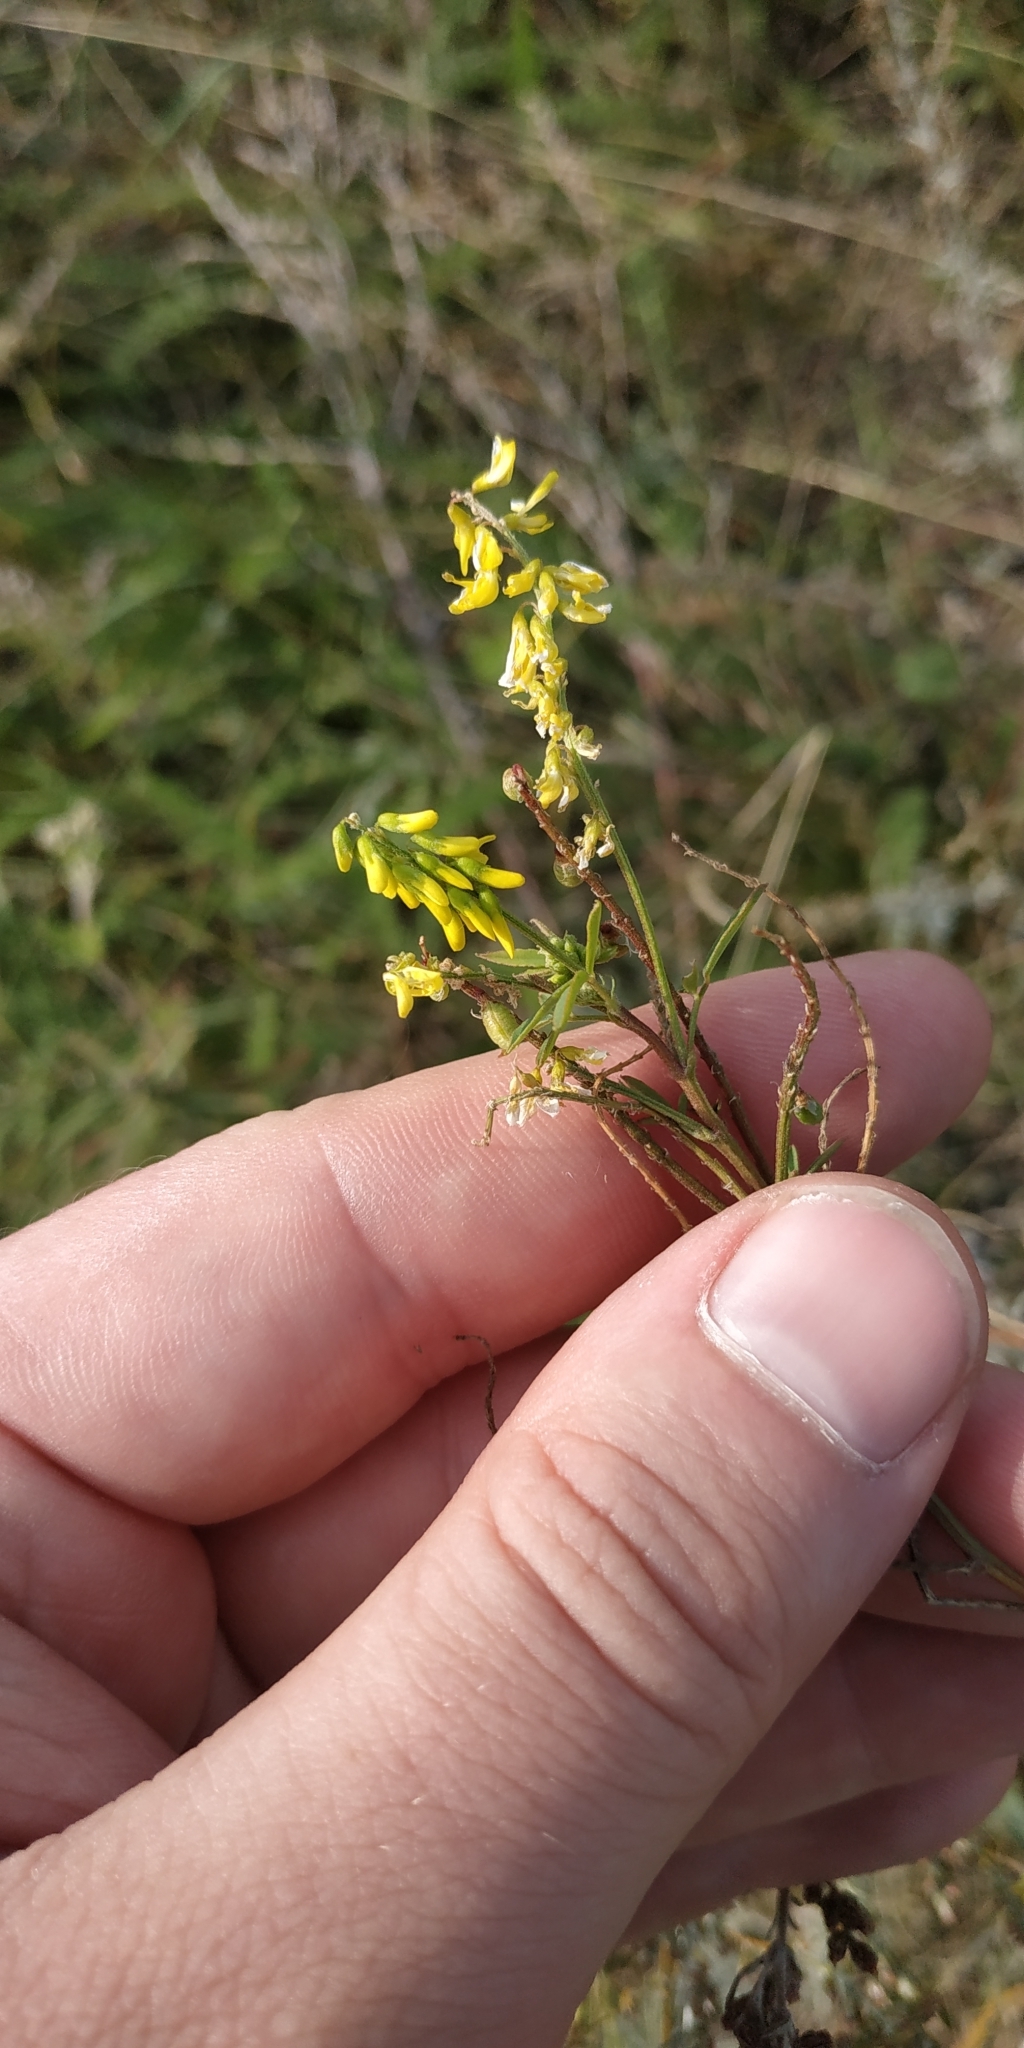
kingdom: Plantae
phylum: Tracheophyta
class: Magnoliopsida
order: Fabales
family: Fabaceae
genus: Melilotus
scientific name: Melilotus officinalis
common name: Sweetclover
